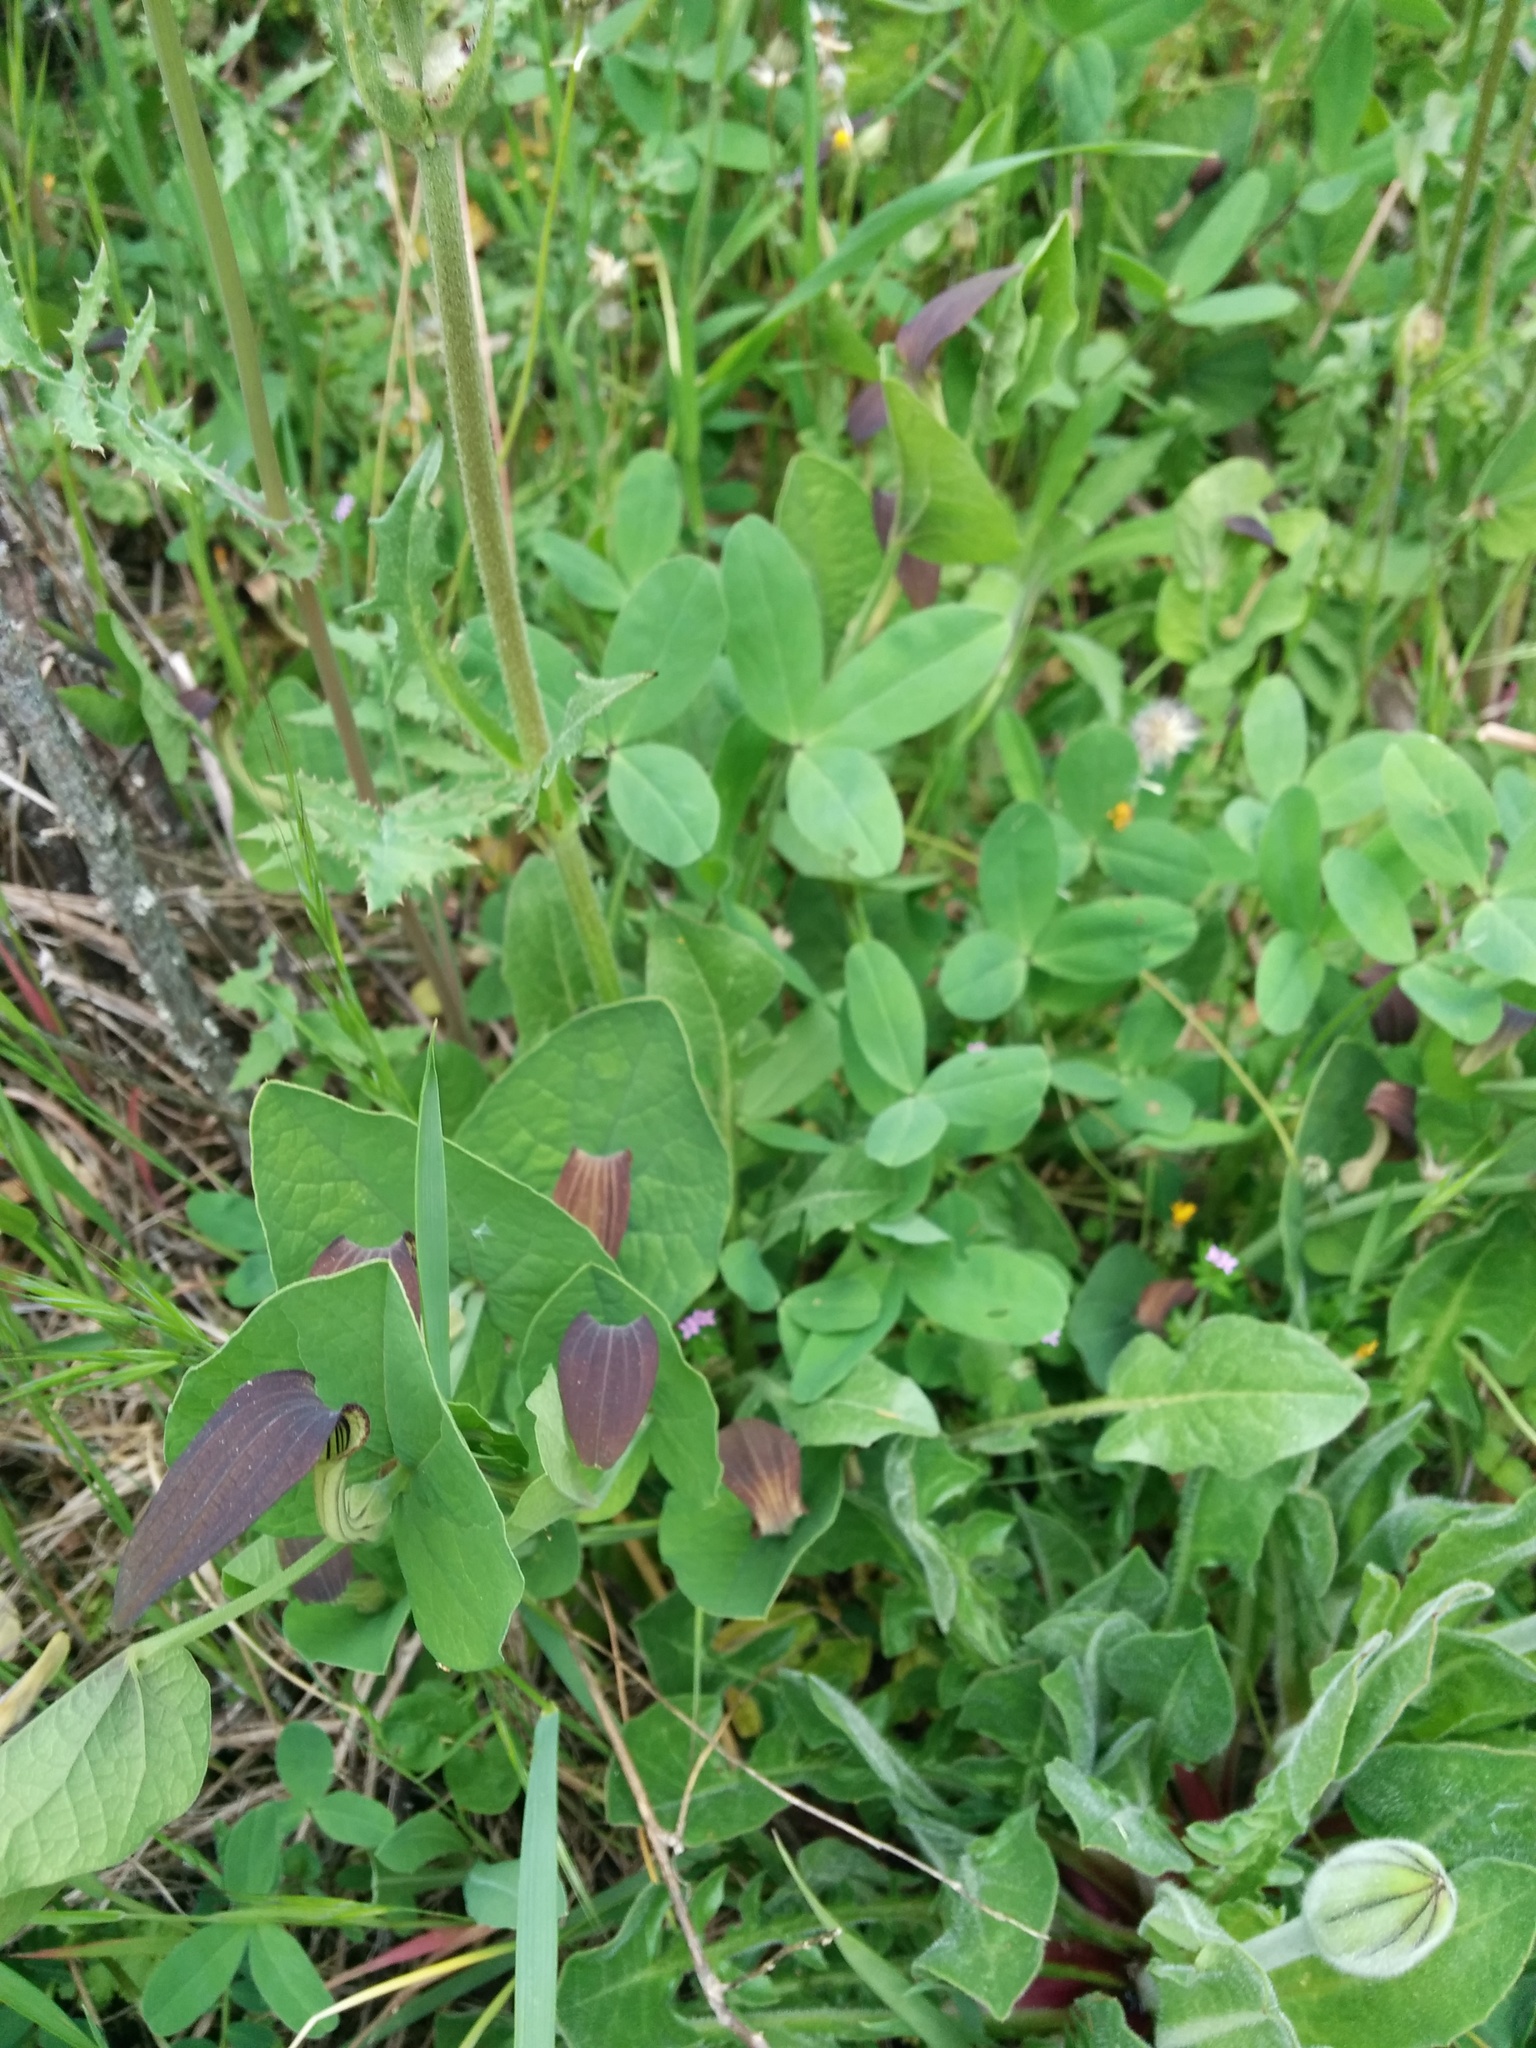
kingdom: Plantae
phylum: Tracheophyta
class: Magnoliopsida
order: Piperales
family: Aristolochiaceae
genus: Aristolochia
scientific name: Aristolochia rotunda
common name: Smearwort
